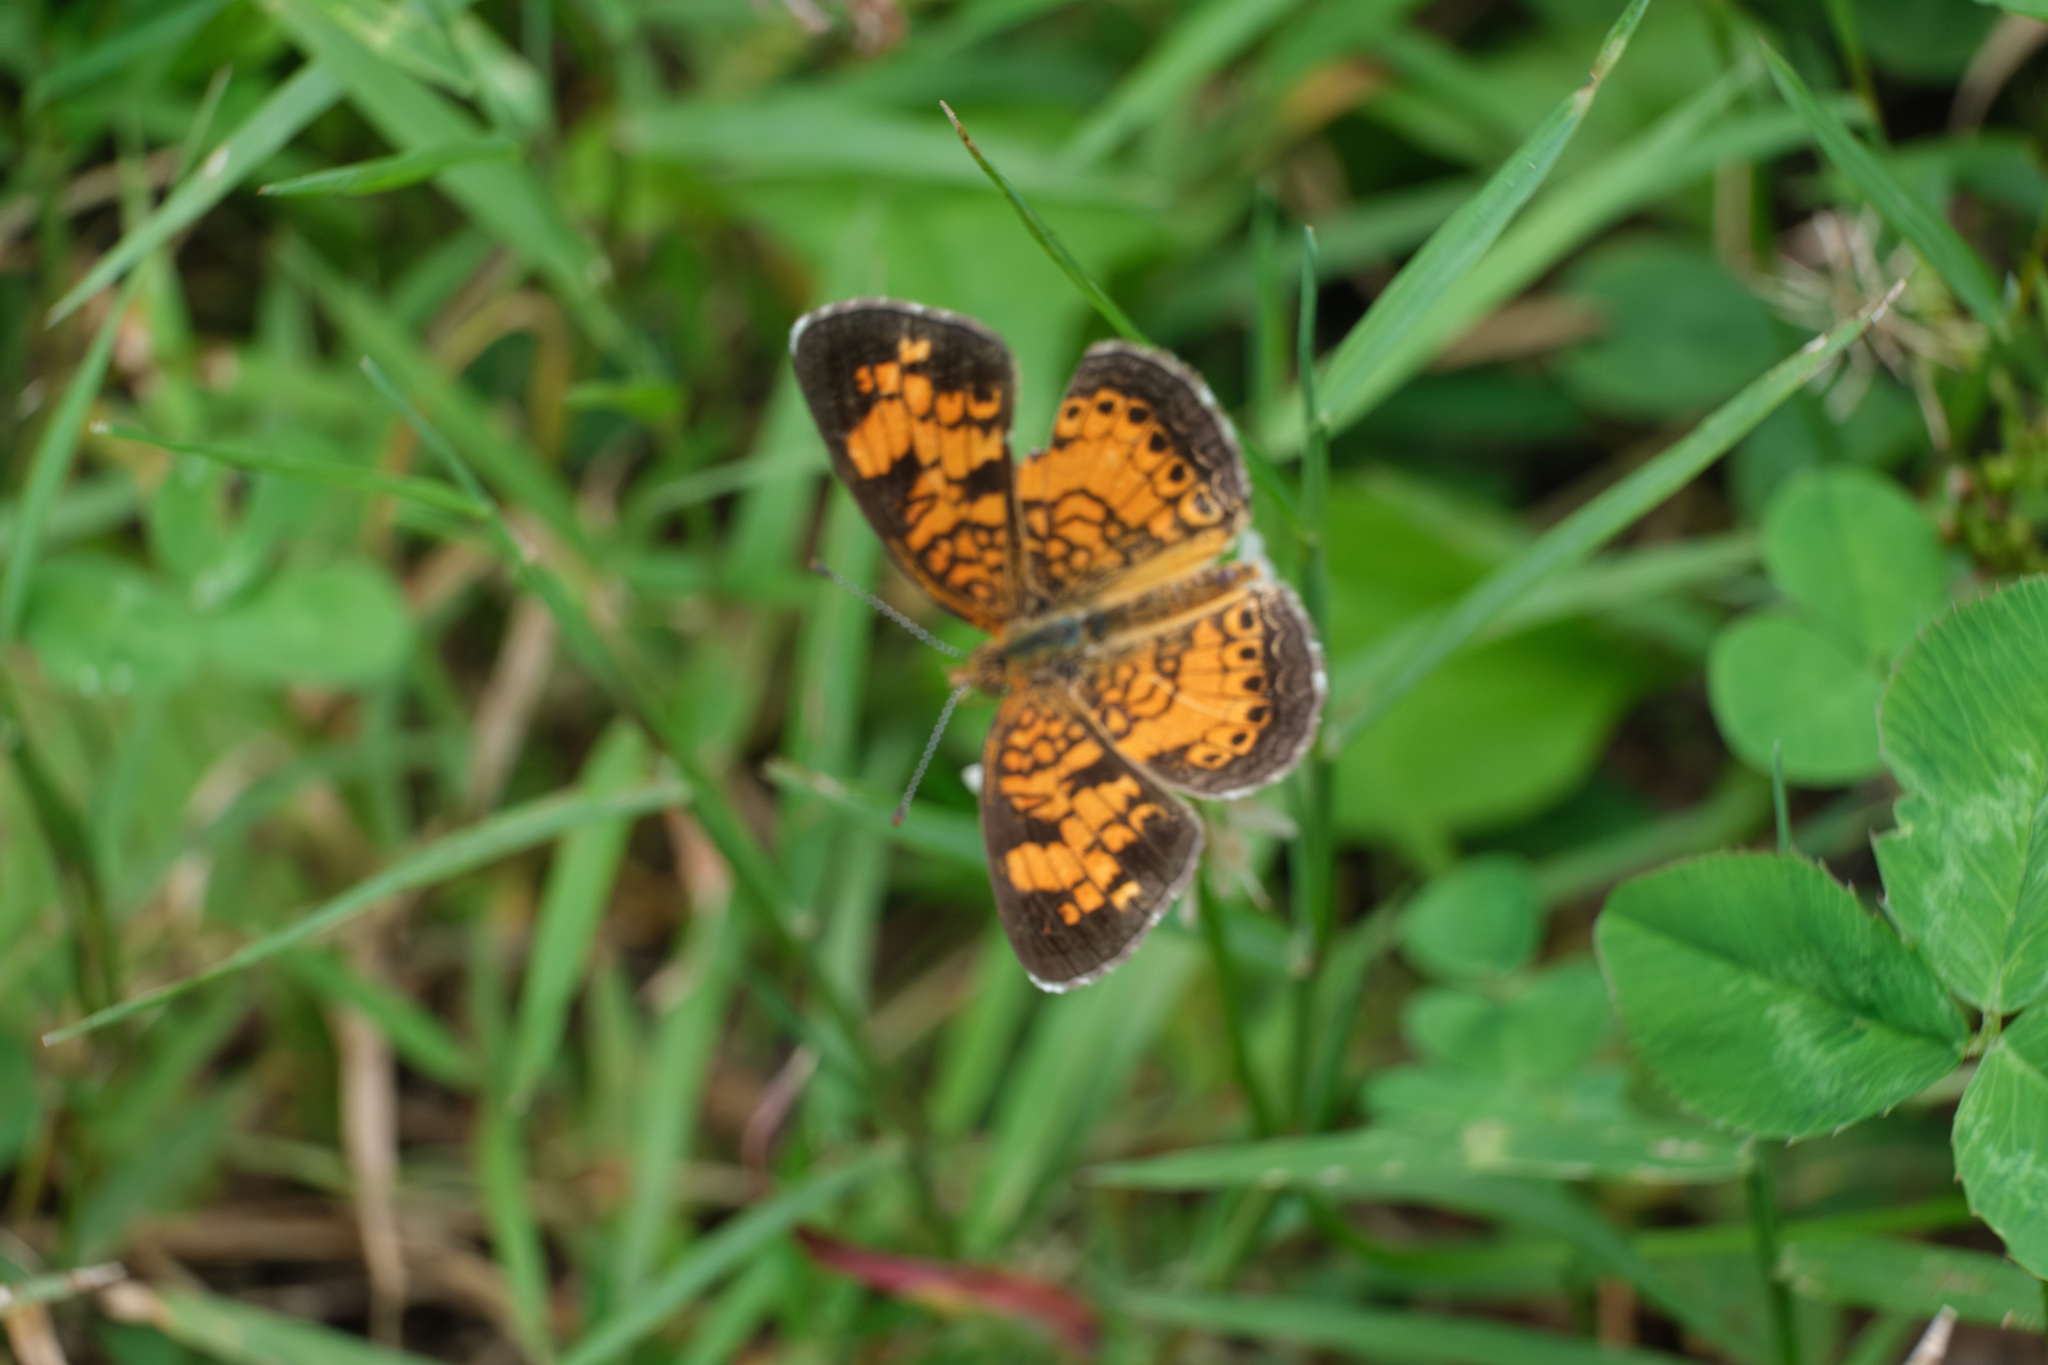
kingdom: Animalia
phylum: Arthropoda
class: Insecta
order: Lepidoptera
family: Nymphalidae
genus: Phyciodes
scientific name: Phyciodes tharos
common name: Pearl crescent
